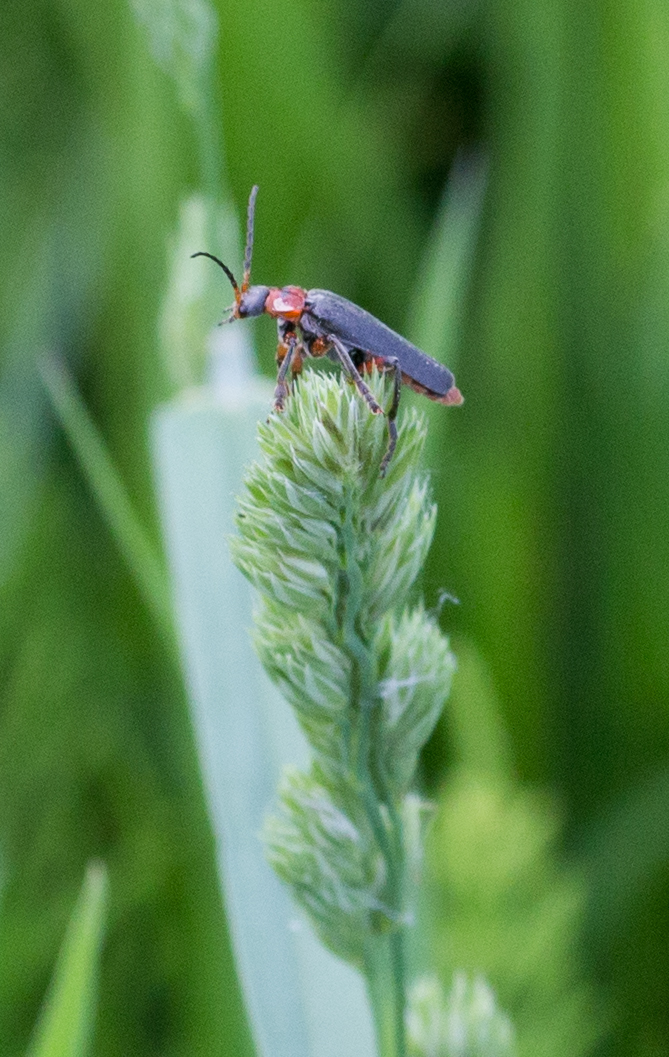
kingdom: Animalia
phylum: Arthropoda
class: Insecta
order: Coleoptera
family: Cantharidae
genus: Cantharis
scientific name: Cantharis rustica
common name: Soldier beetle
